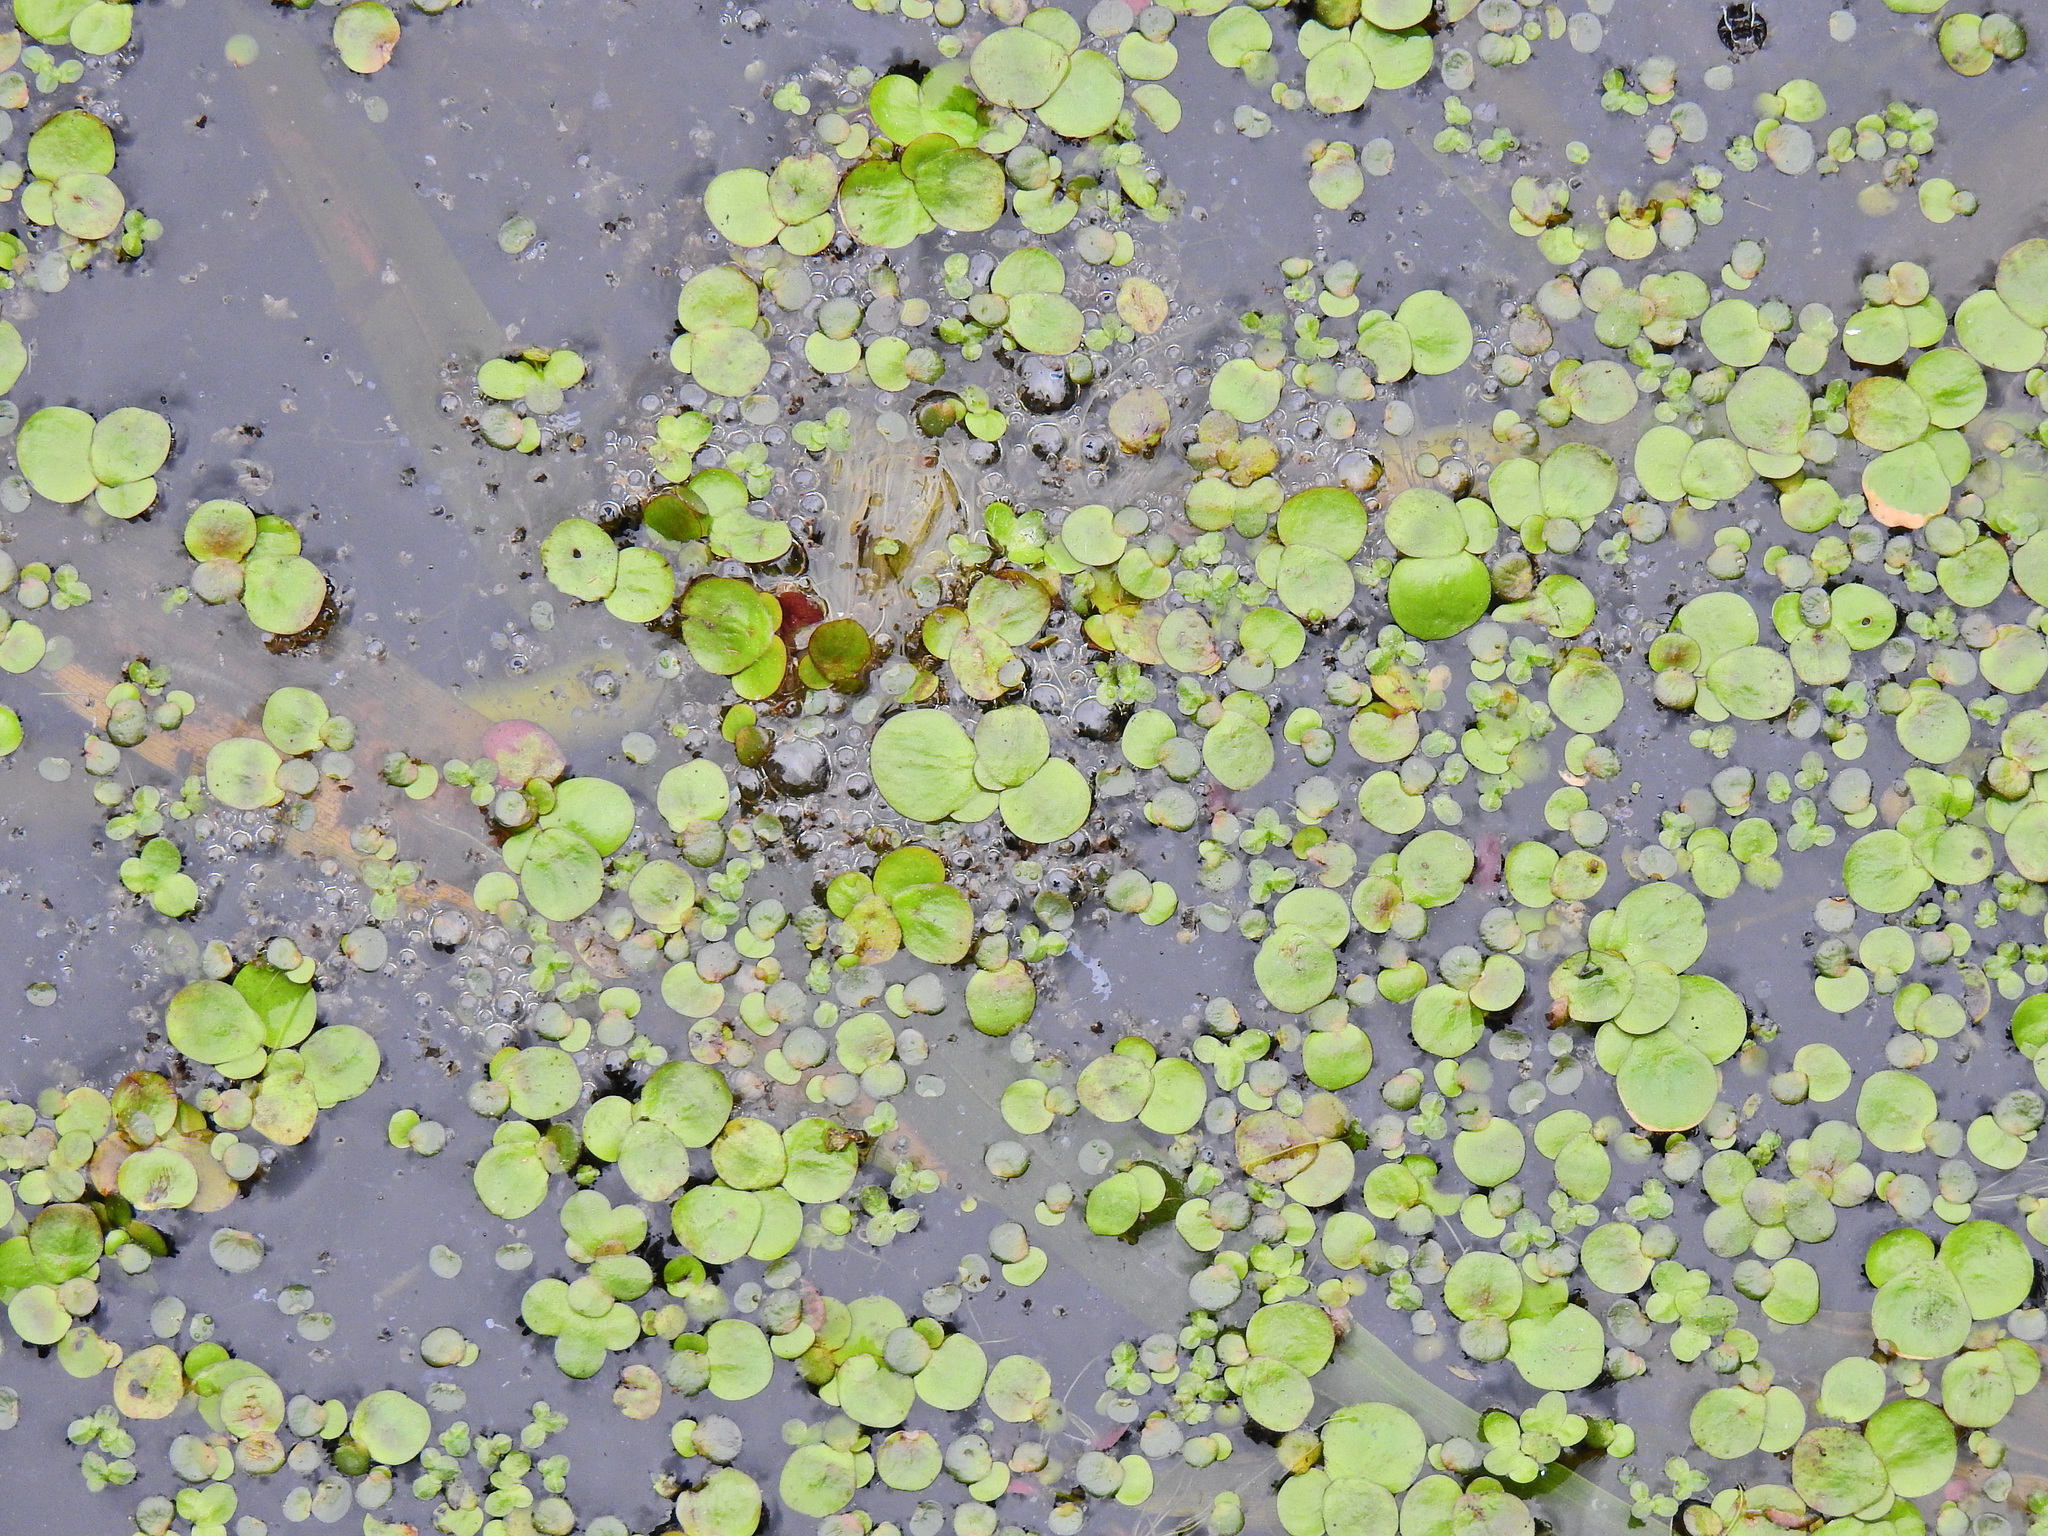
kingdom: Plantae
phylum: Tracheophyta
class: Liliopsida
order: Alismatales
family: Araceae
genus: Spirodela
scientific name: Spirodela polyrhiza
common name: Great duckweed
